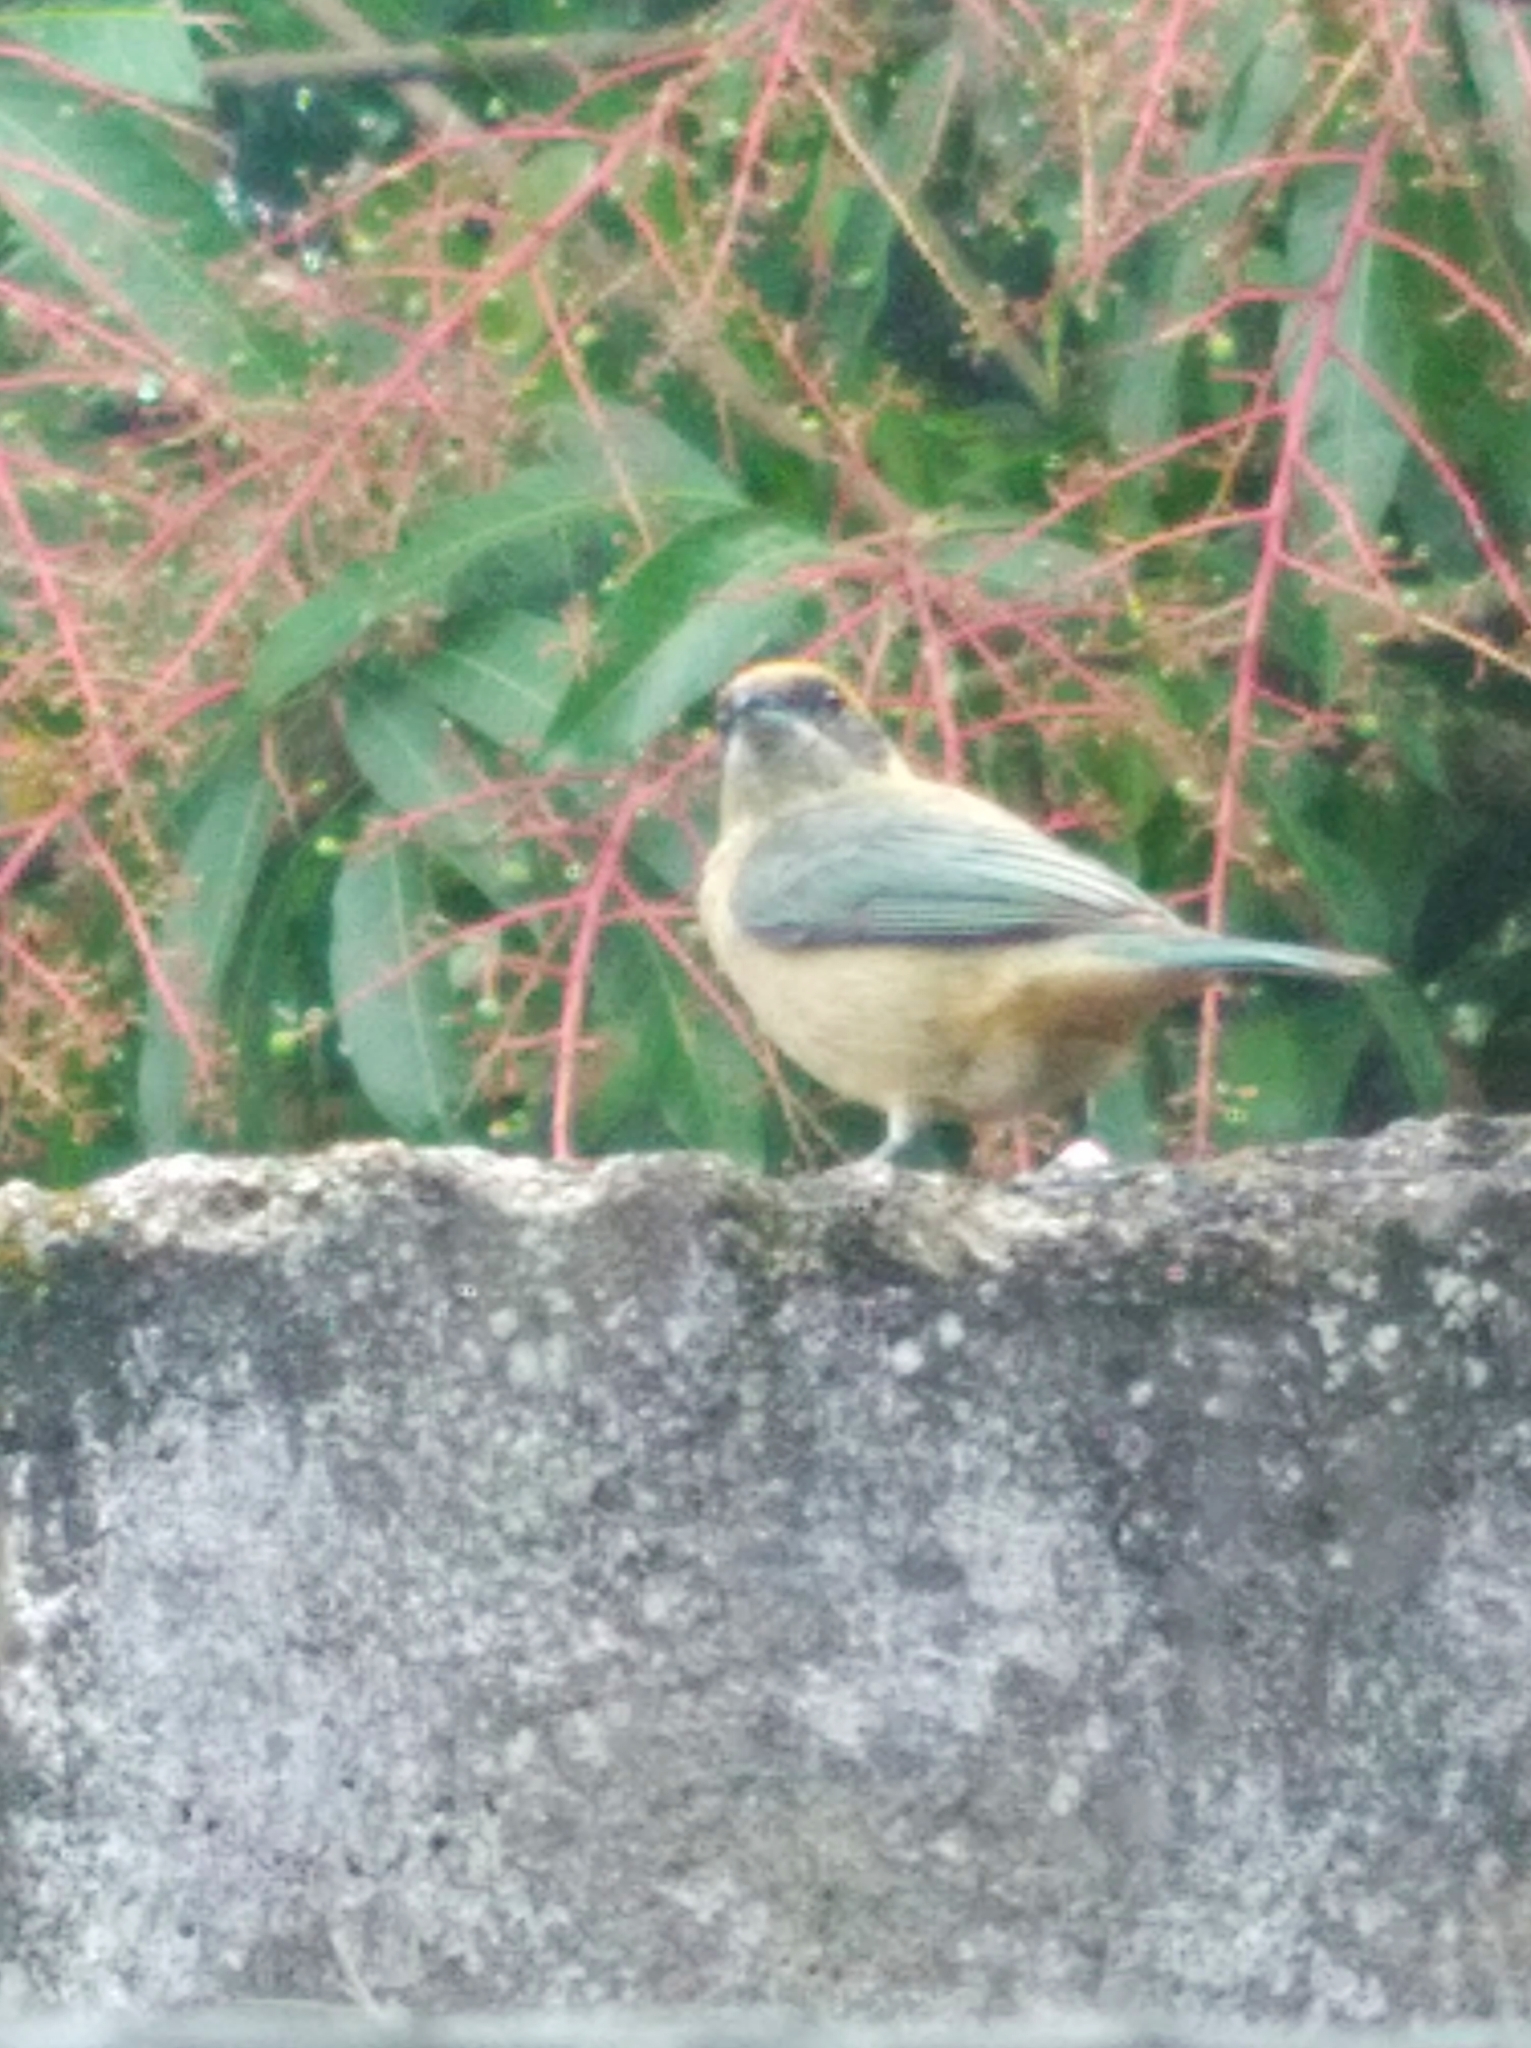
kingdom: Animalia
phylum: Chordata
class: Aves
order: Passeriformes
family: Thraupidae
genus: Stilpnia
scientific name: Stilpnia cayana
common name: Burnished-buff tanager
